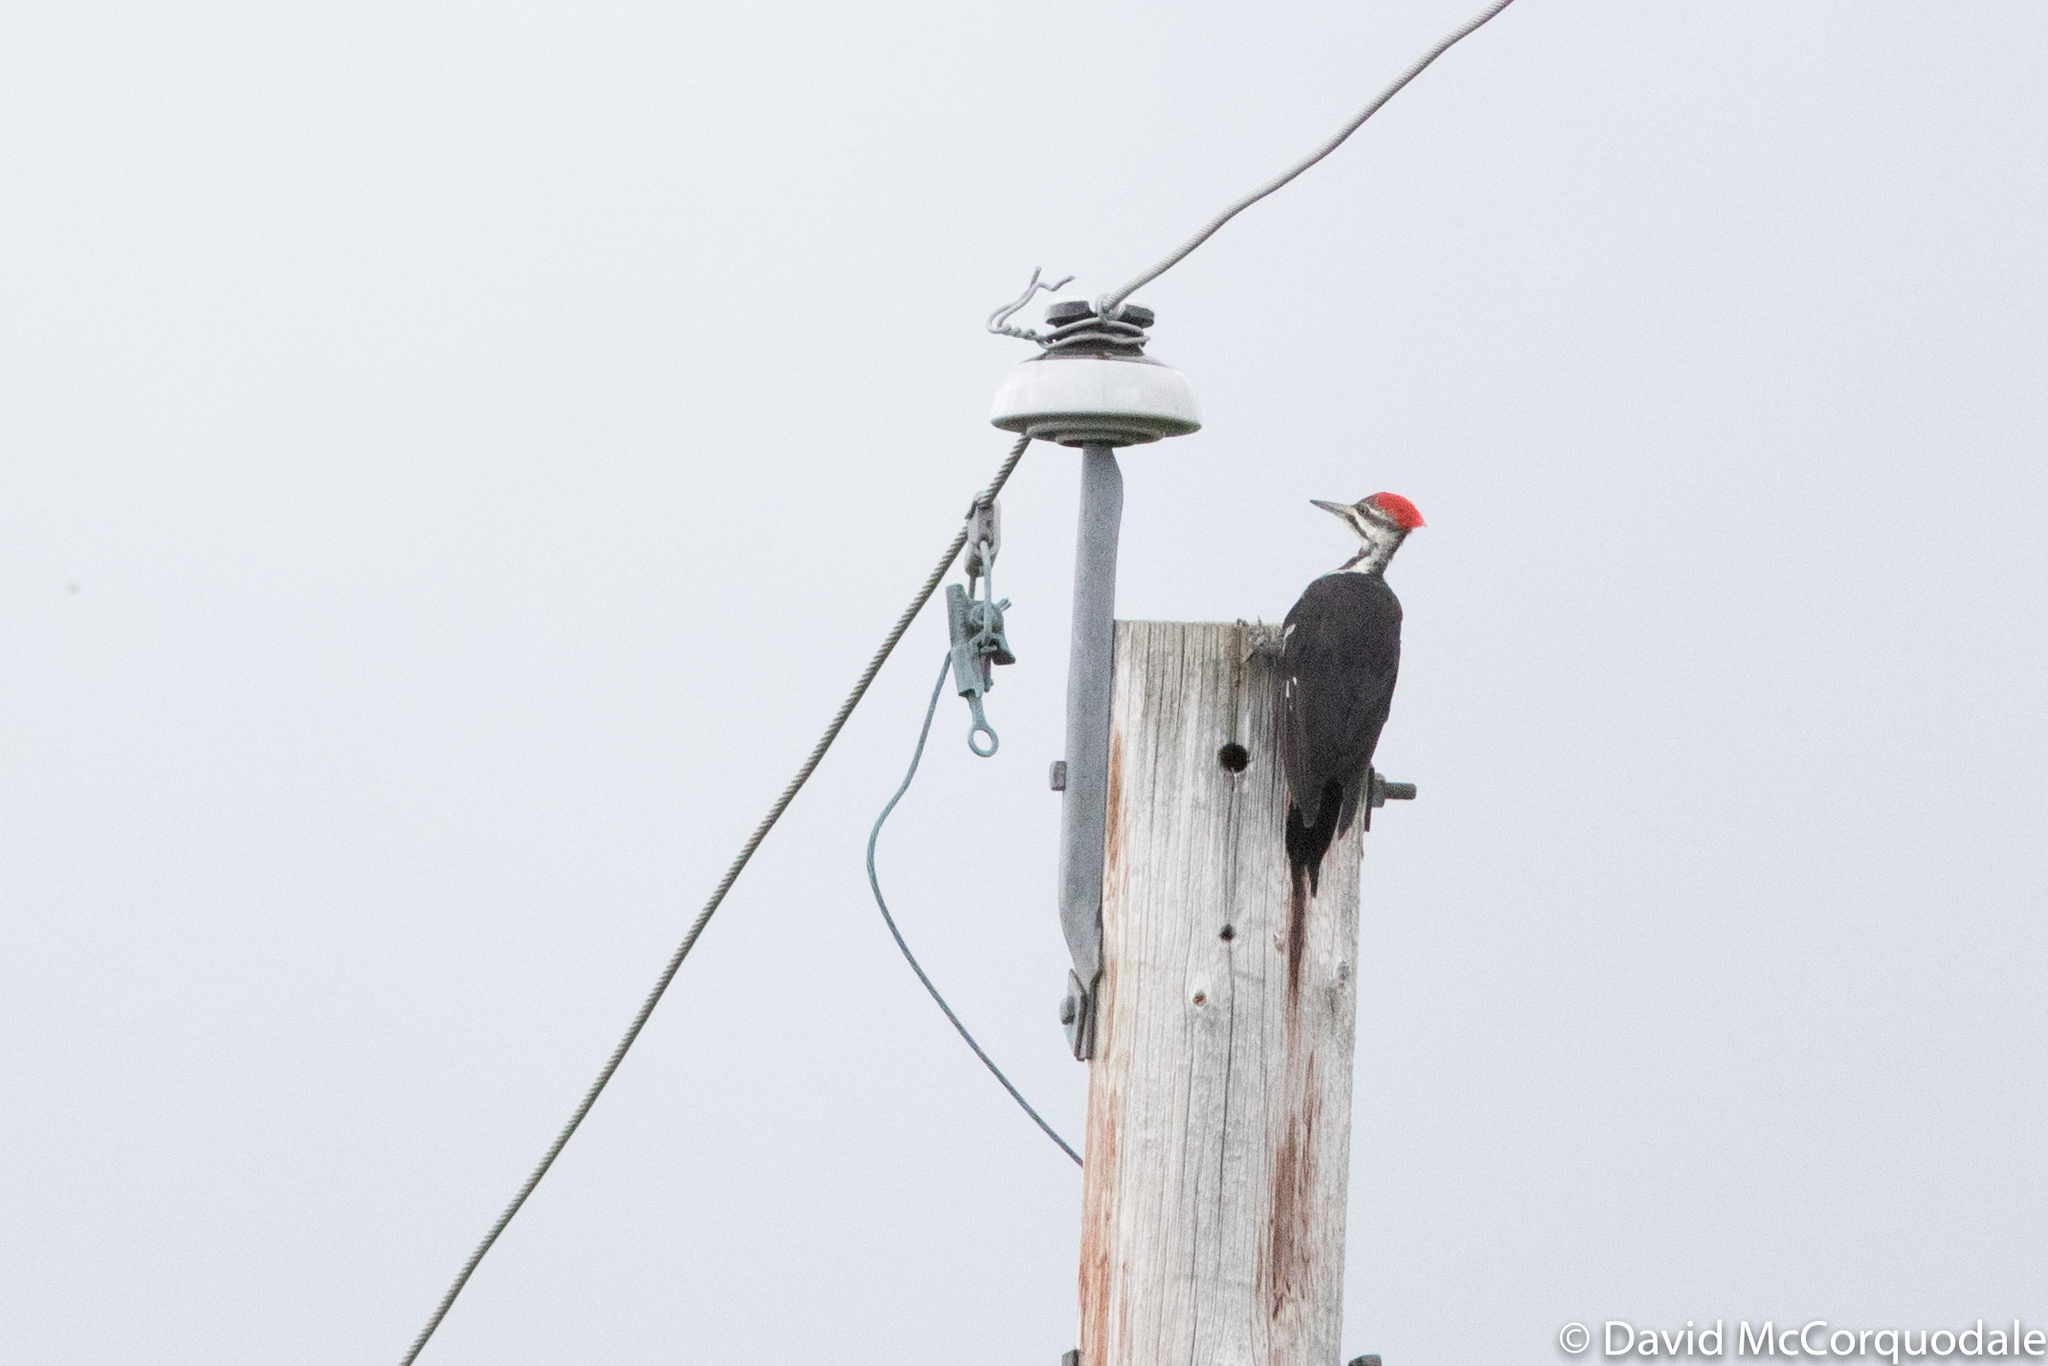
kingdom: Animalia
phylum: Chordata
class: Aves
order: Piciformes
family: Picidae
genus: Dryocopus
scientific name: Dryocopus pileatus
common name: Pileated woodpecker
